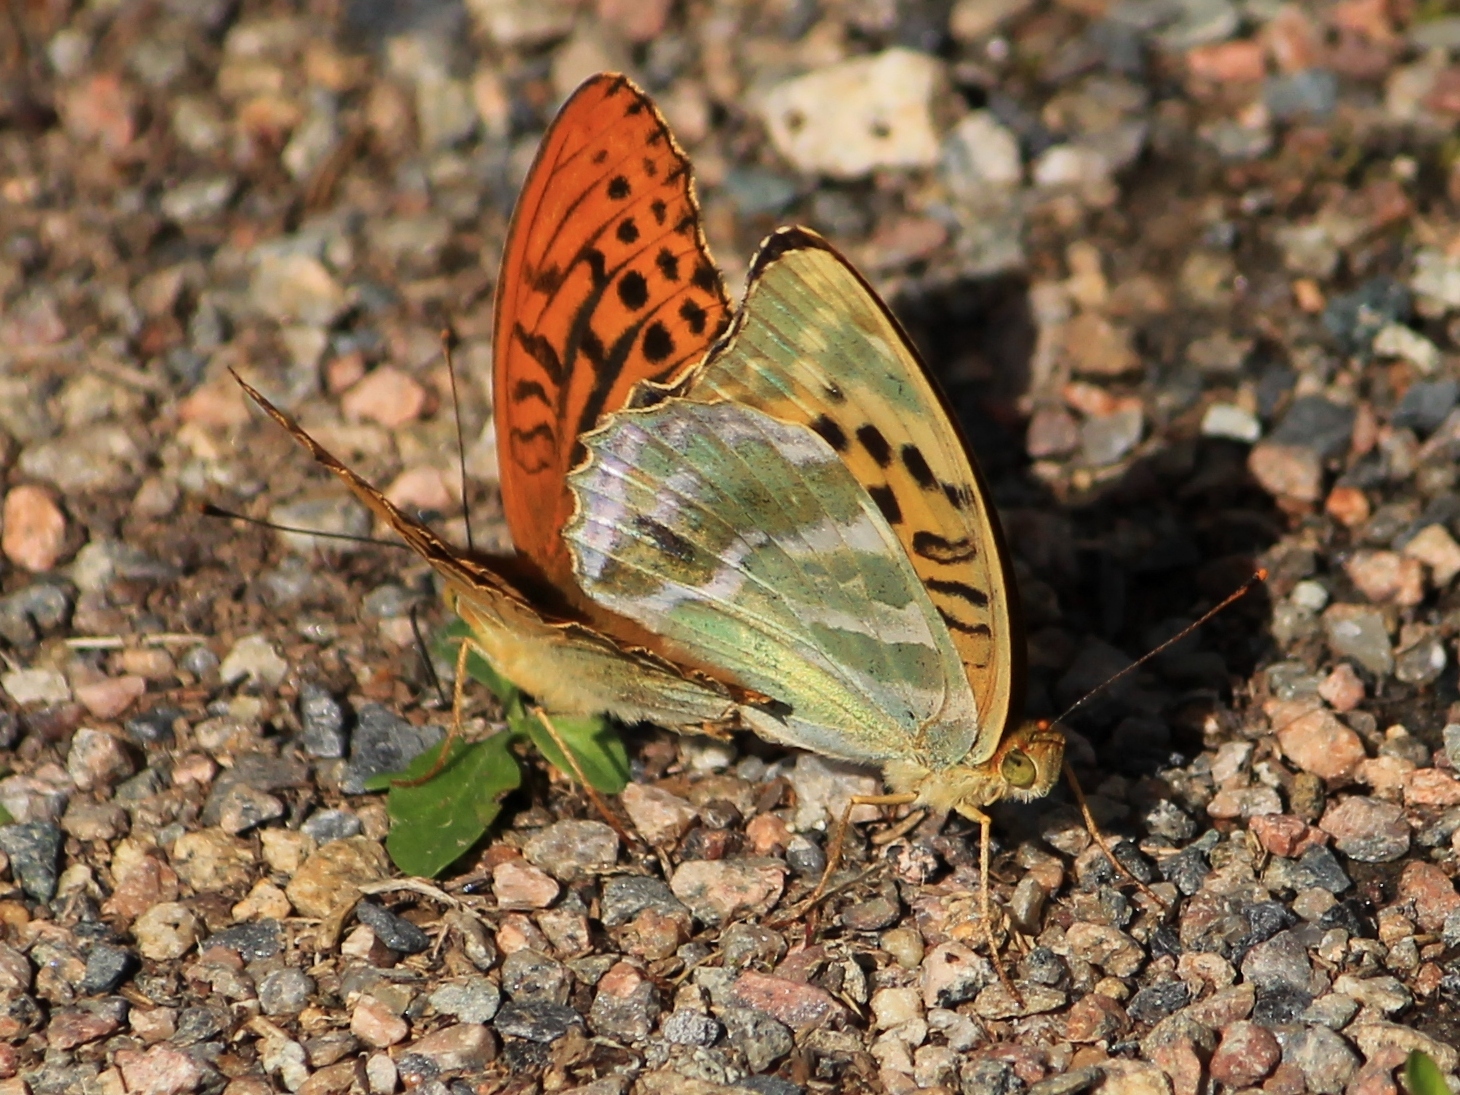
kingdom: Animalia
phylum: Arthropoda
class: Insecta
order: Lepidoptera
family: Nymphalidae
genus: Argynnis
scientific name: Argynnis paphia
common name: Silver-washed fritillary
